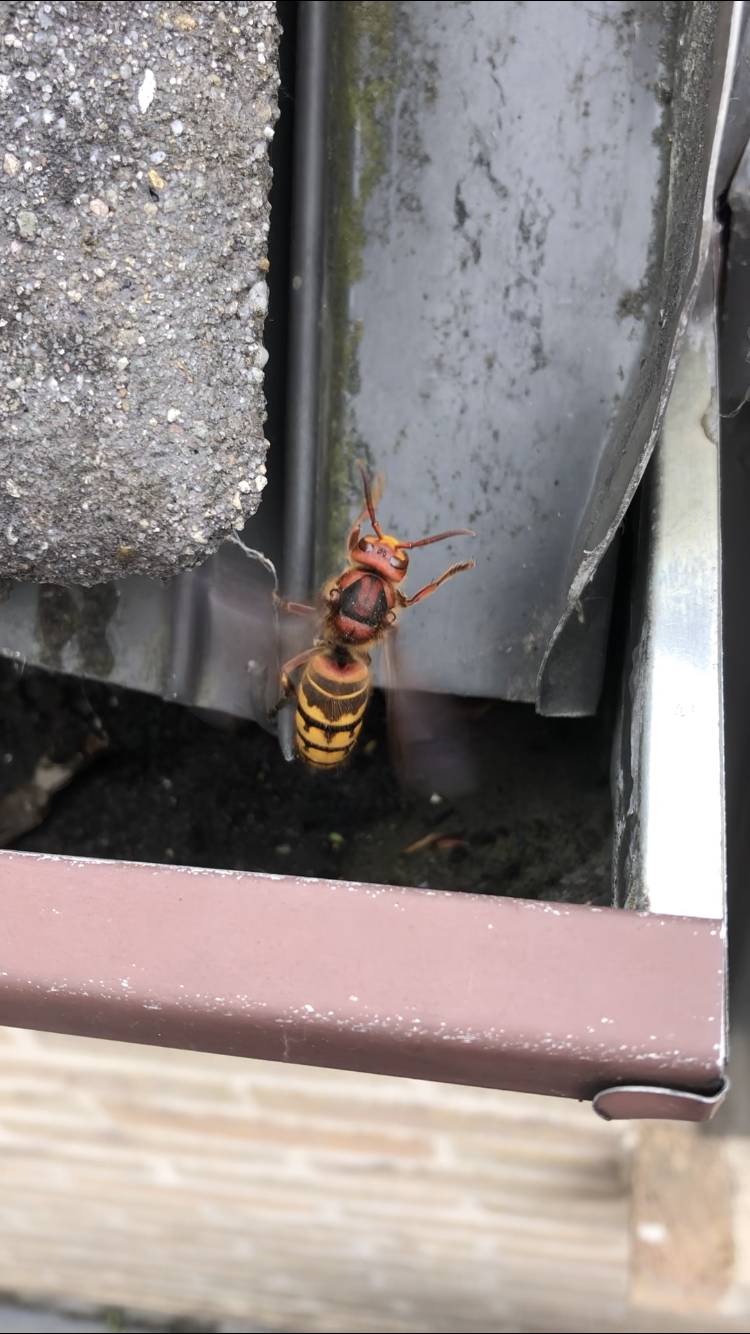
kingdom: Animalia
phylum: Arthropoda
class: Insecta
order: Hymenoptera
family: Vespidae
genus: Vespa
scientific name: Vespa crabro
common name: Hornet
